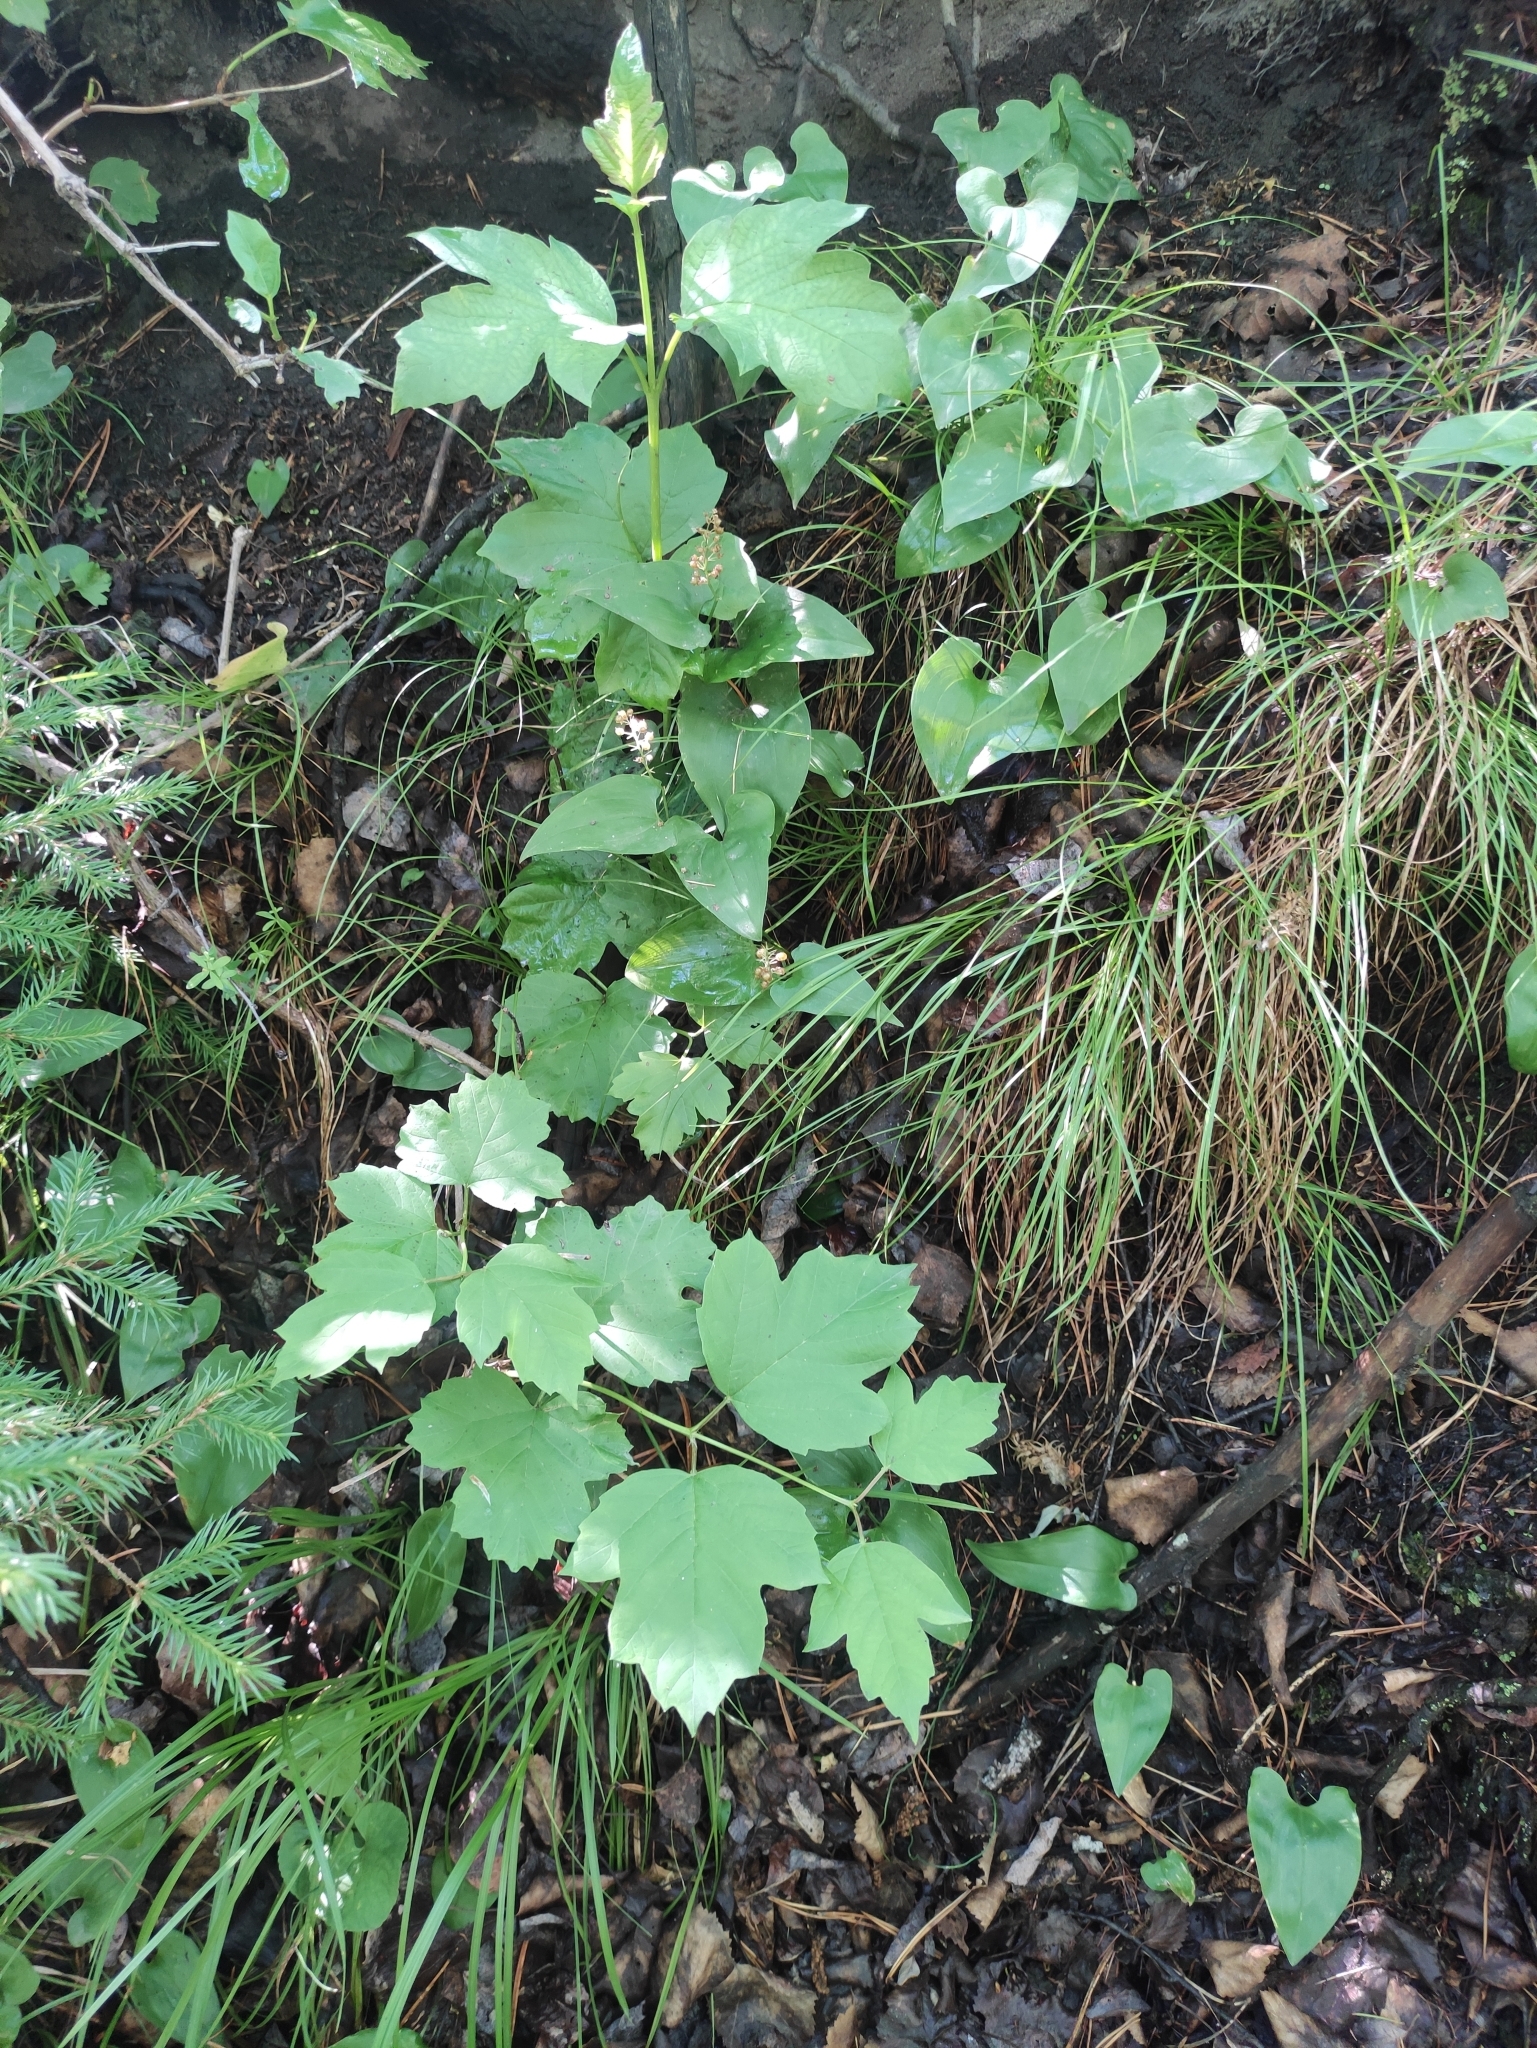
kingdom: Plantae
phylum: Tracheophyta
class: Magnoliopsida
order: Dipsacales
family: Viburnaceae
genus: Viburnum
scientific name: Viburnum opulus
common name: Guelder-rose
